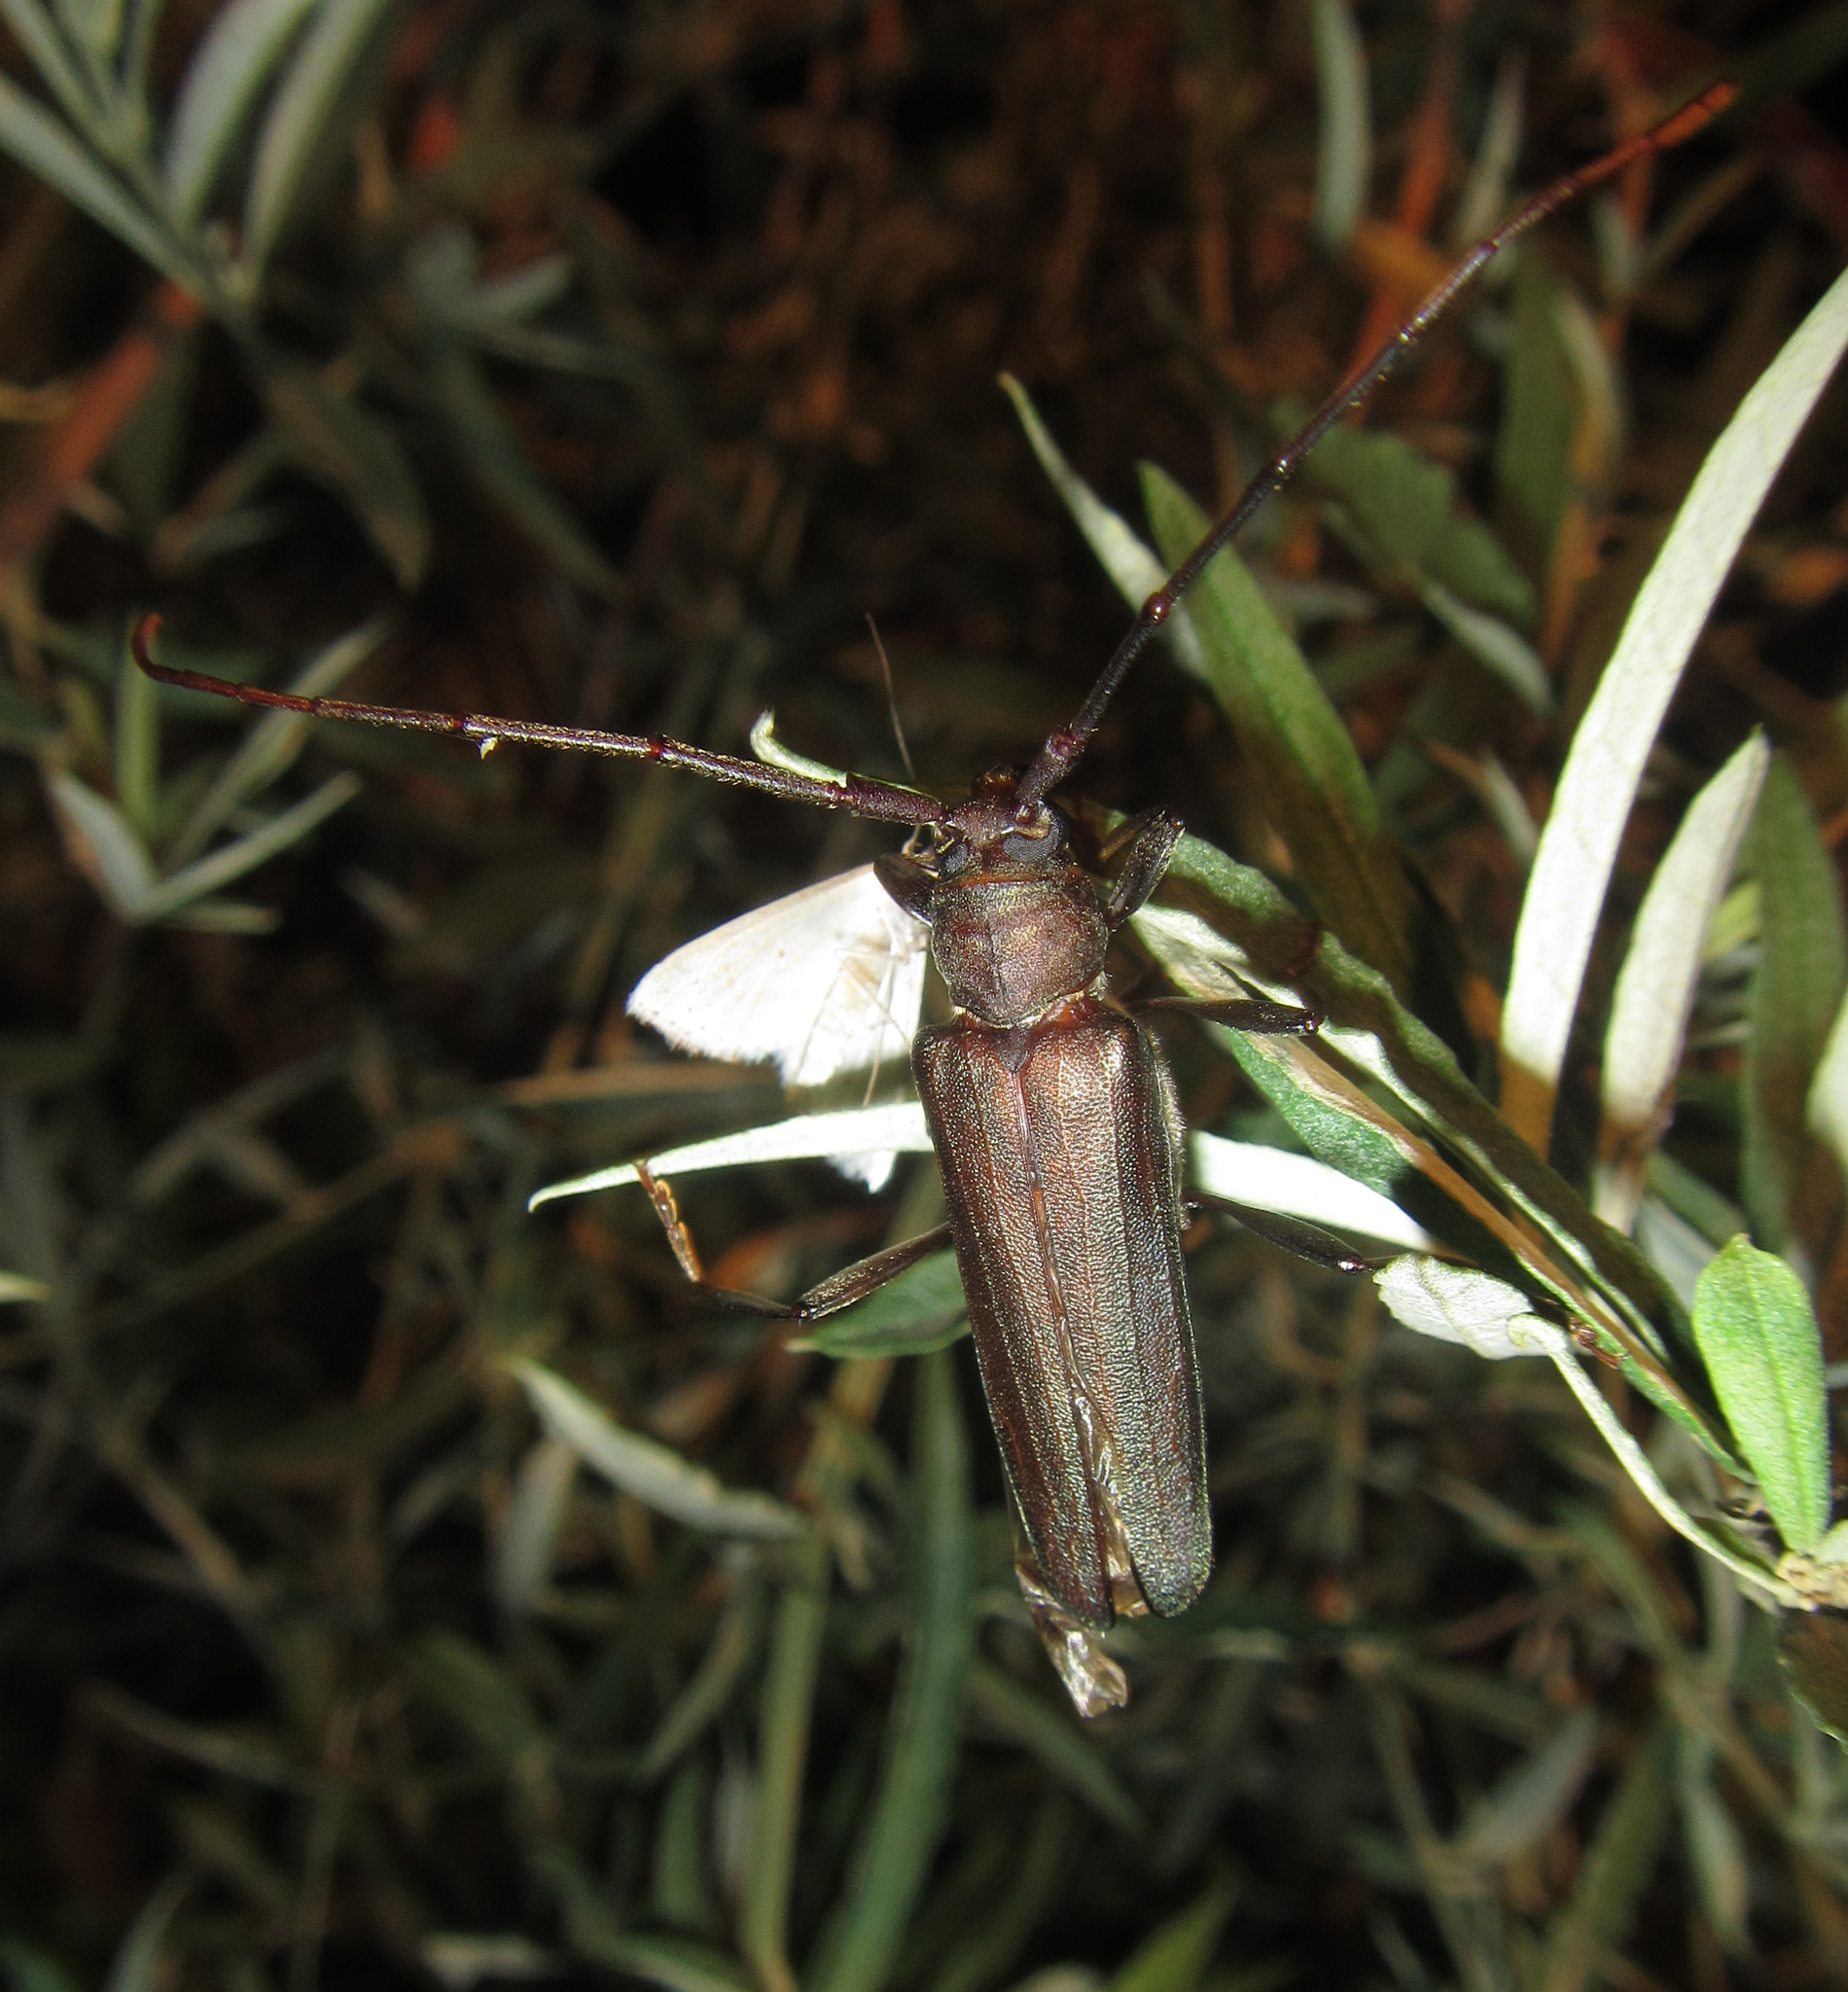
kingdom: Animalia
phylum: Arthropoda
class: Insecta
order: Coleoptera
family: Cerambycidae
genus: Xystrocera
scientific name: Xystrocera erosa
